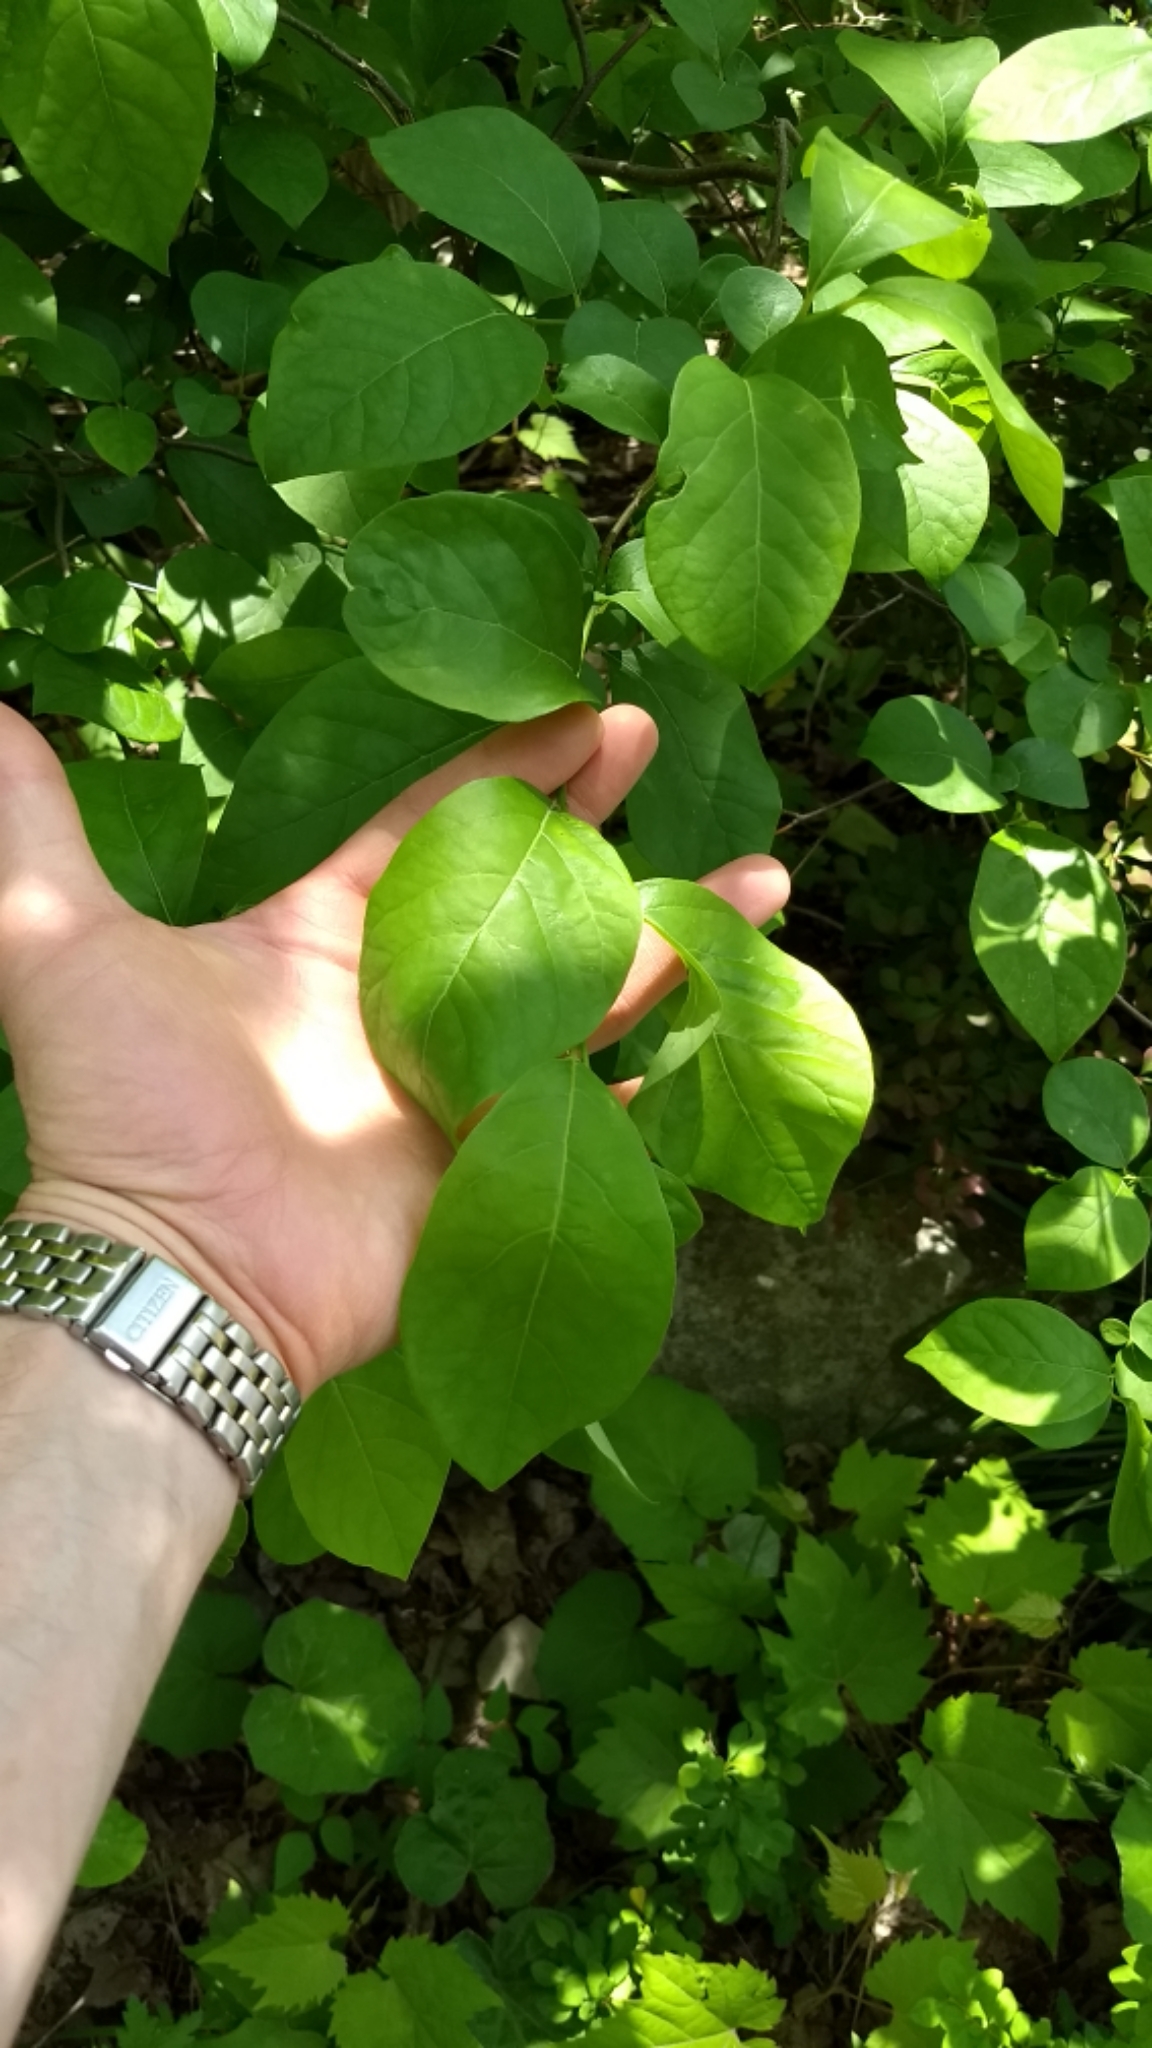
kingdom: Plantae
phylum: Tracheophyta
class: Magnoliopsida
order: Laurales
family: Lauraceae
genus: Lindera
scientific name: Lindera benzoin
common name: Spicebush
